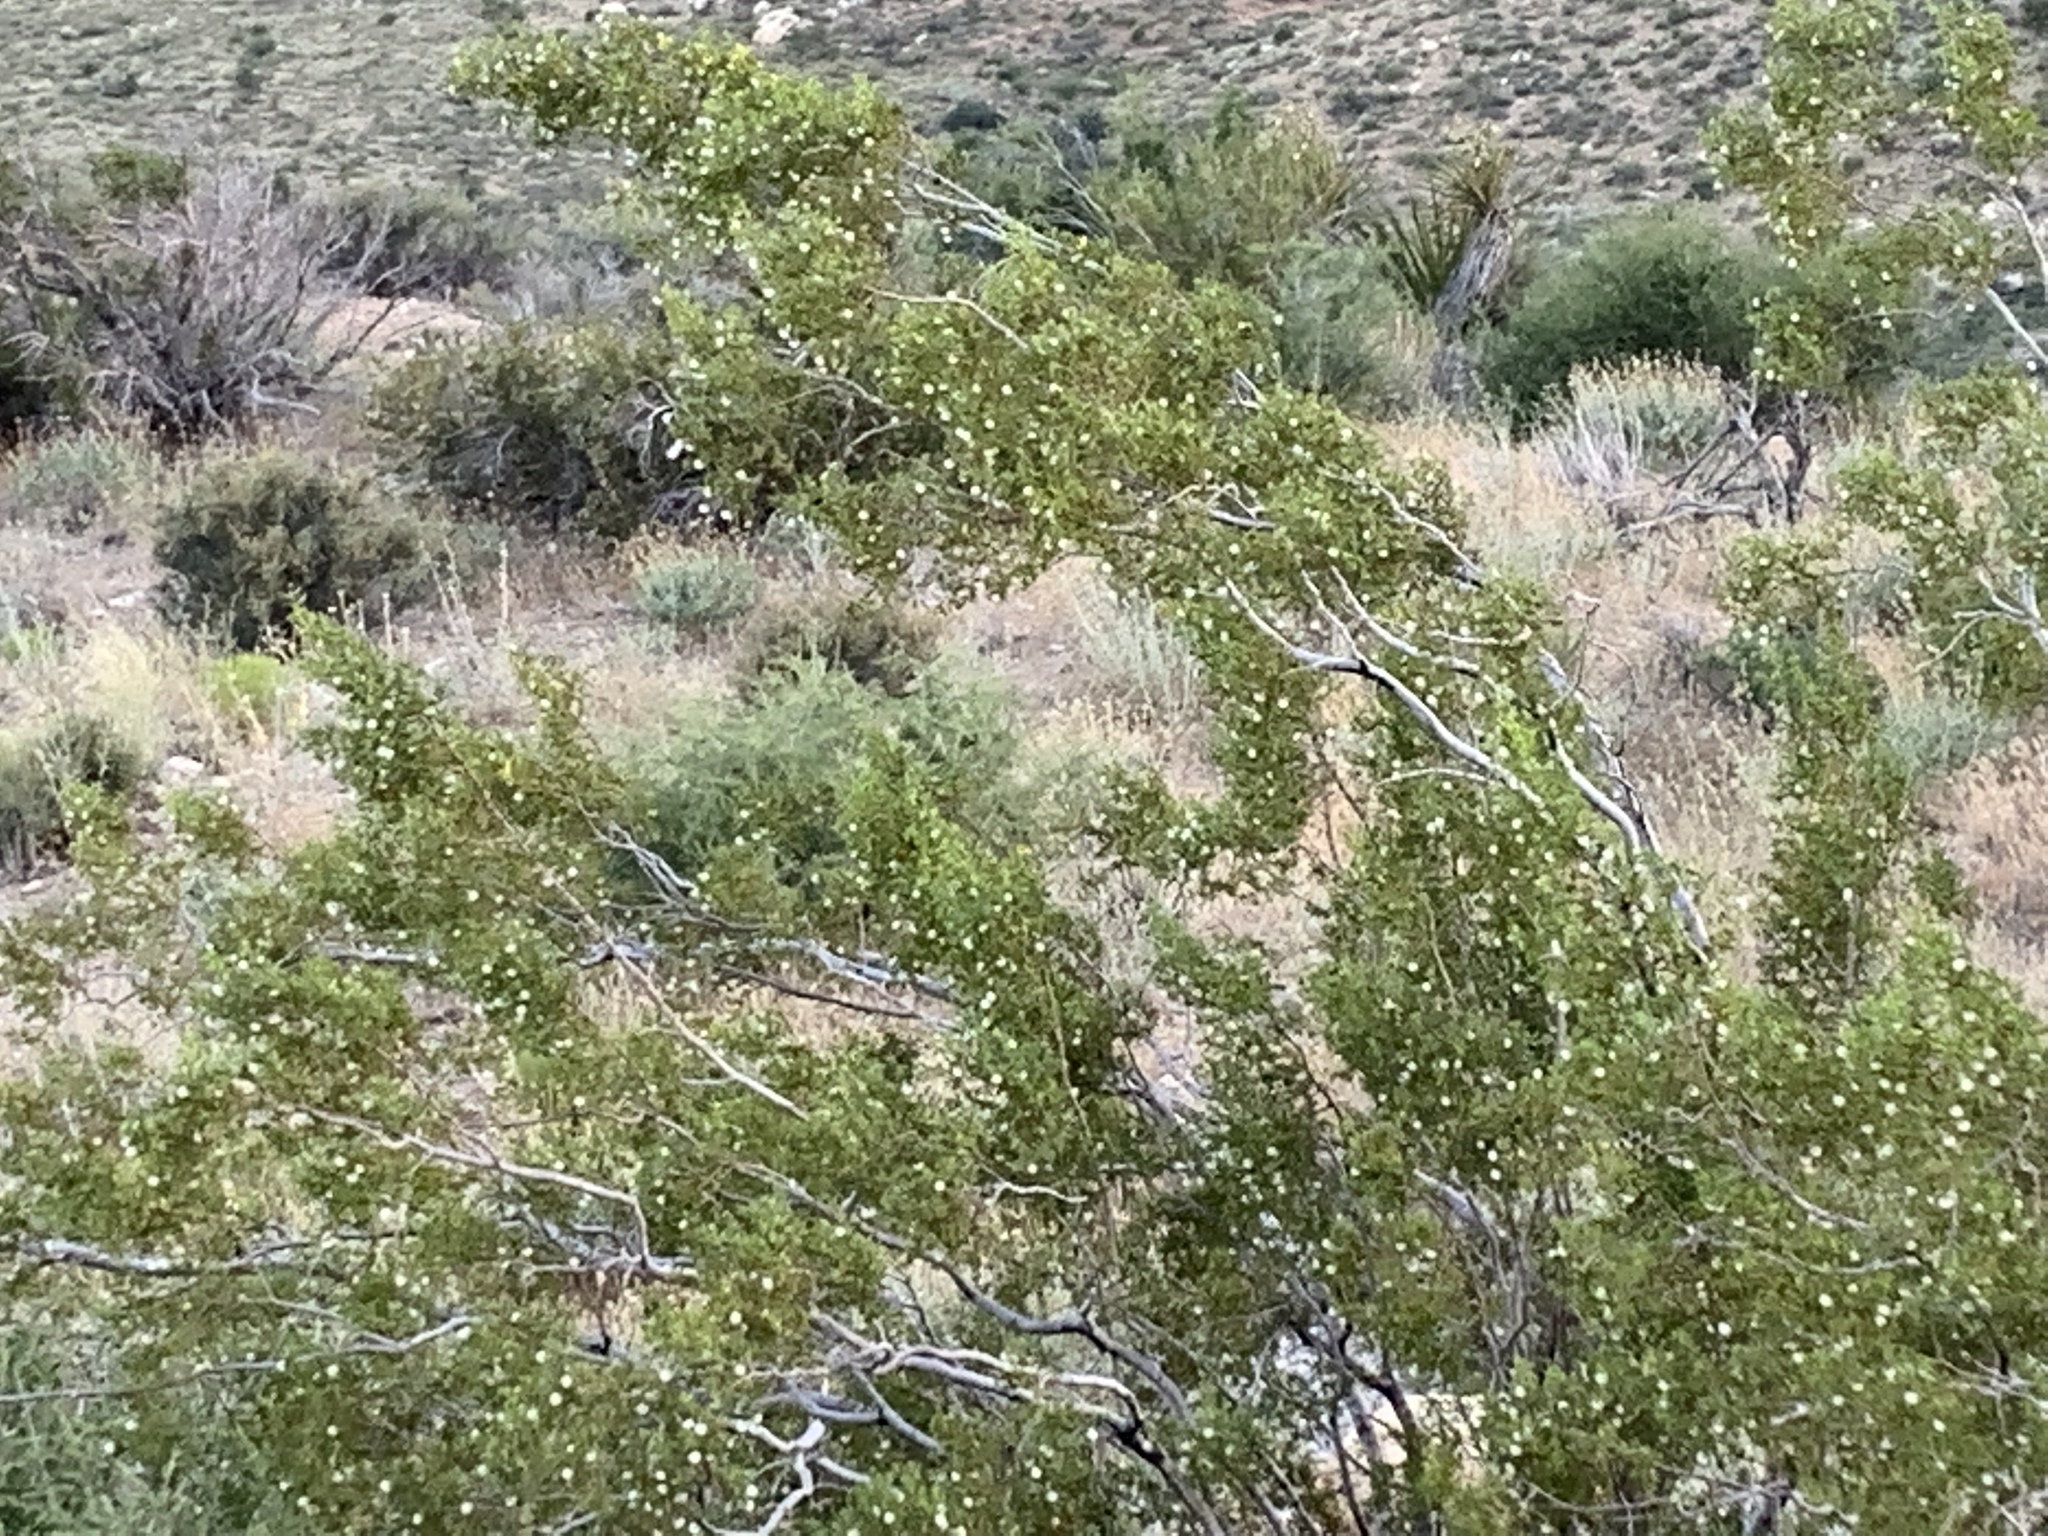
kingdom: Plantae
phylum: Tracheophyta
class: Magnoliopsida
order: Zygophyllales
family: Zygophyllaceae
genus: Larrea
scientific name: Larrea tridentata
